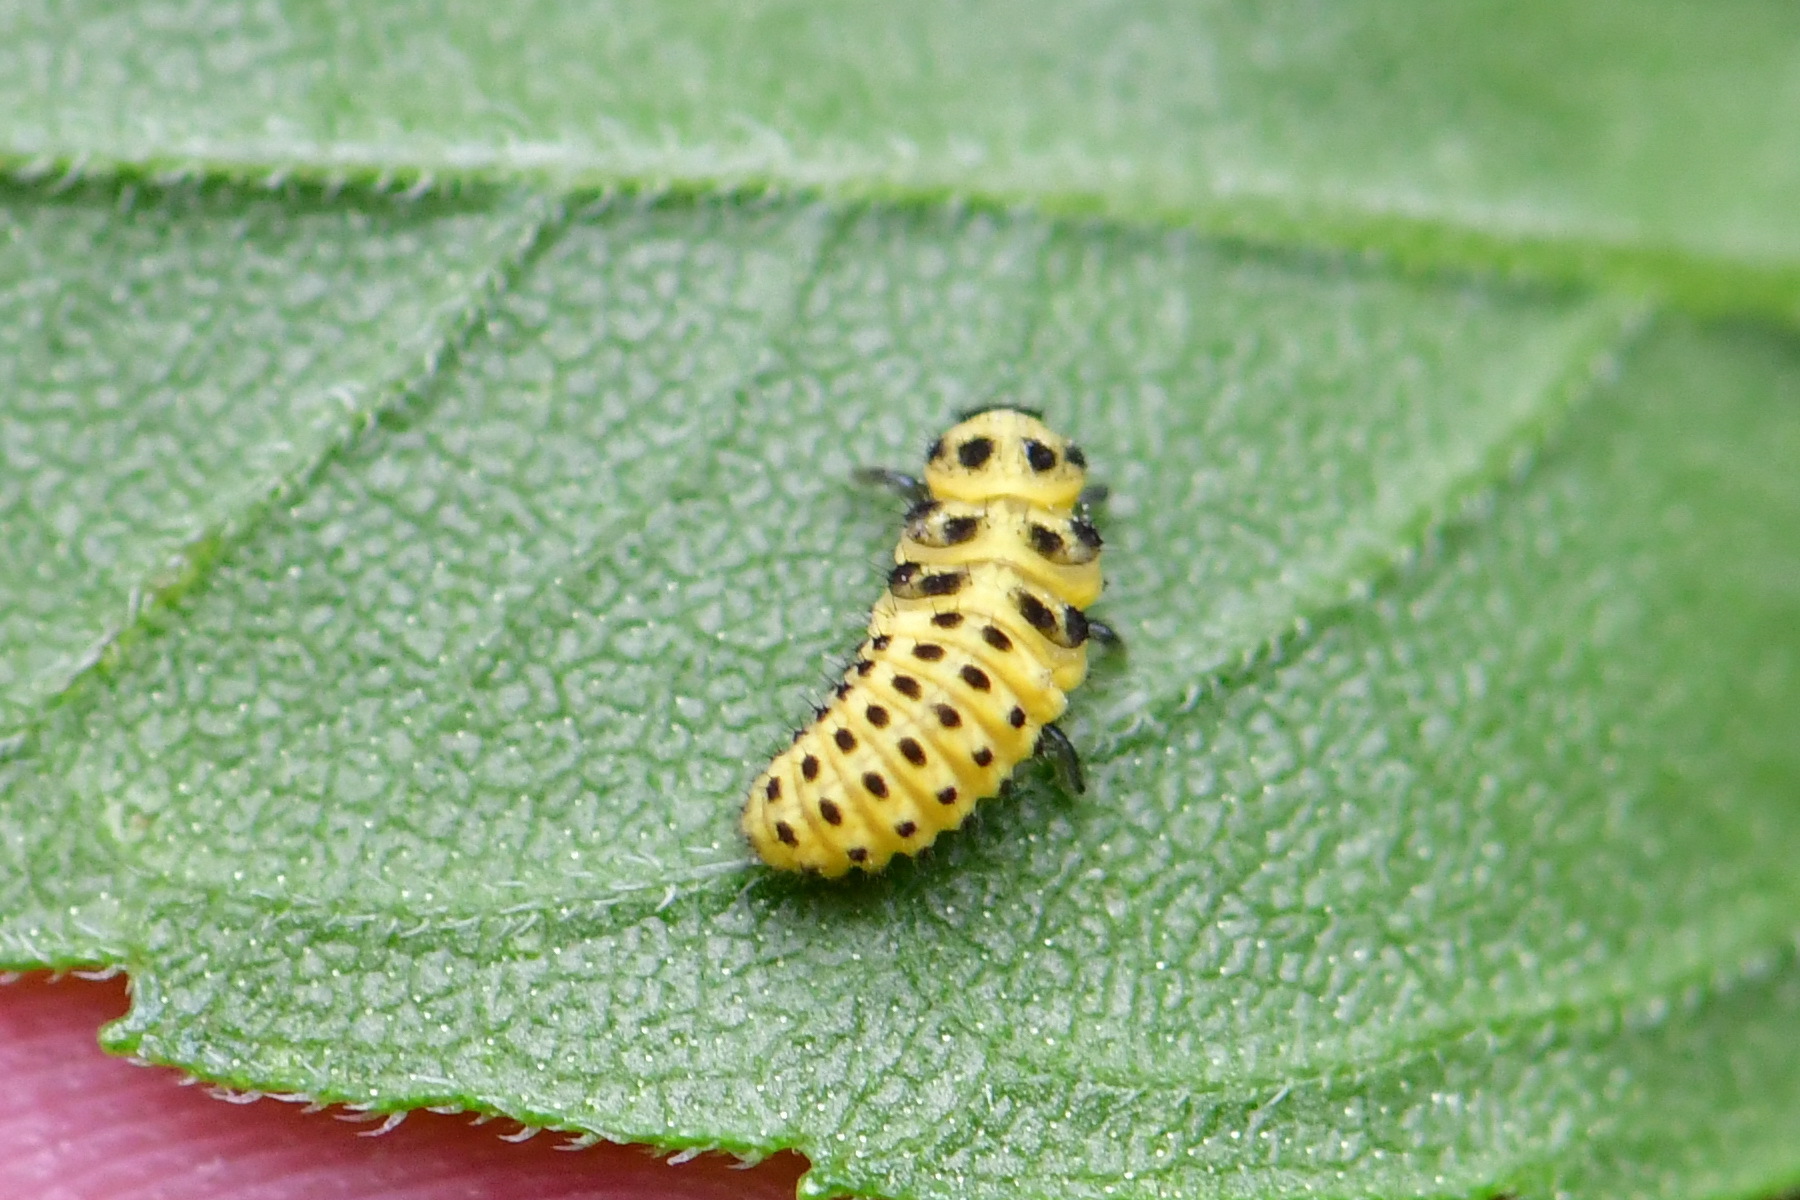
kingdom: Animalia
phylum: Arthropoda
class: Insecta
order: Coleoptera
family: Coccinellidae
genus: Psyllobora
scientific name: Psyllobora vigintiduopunctata
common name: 22-spot ladybird
